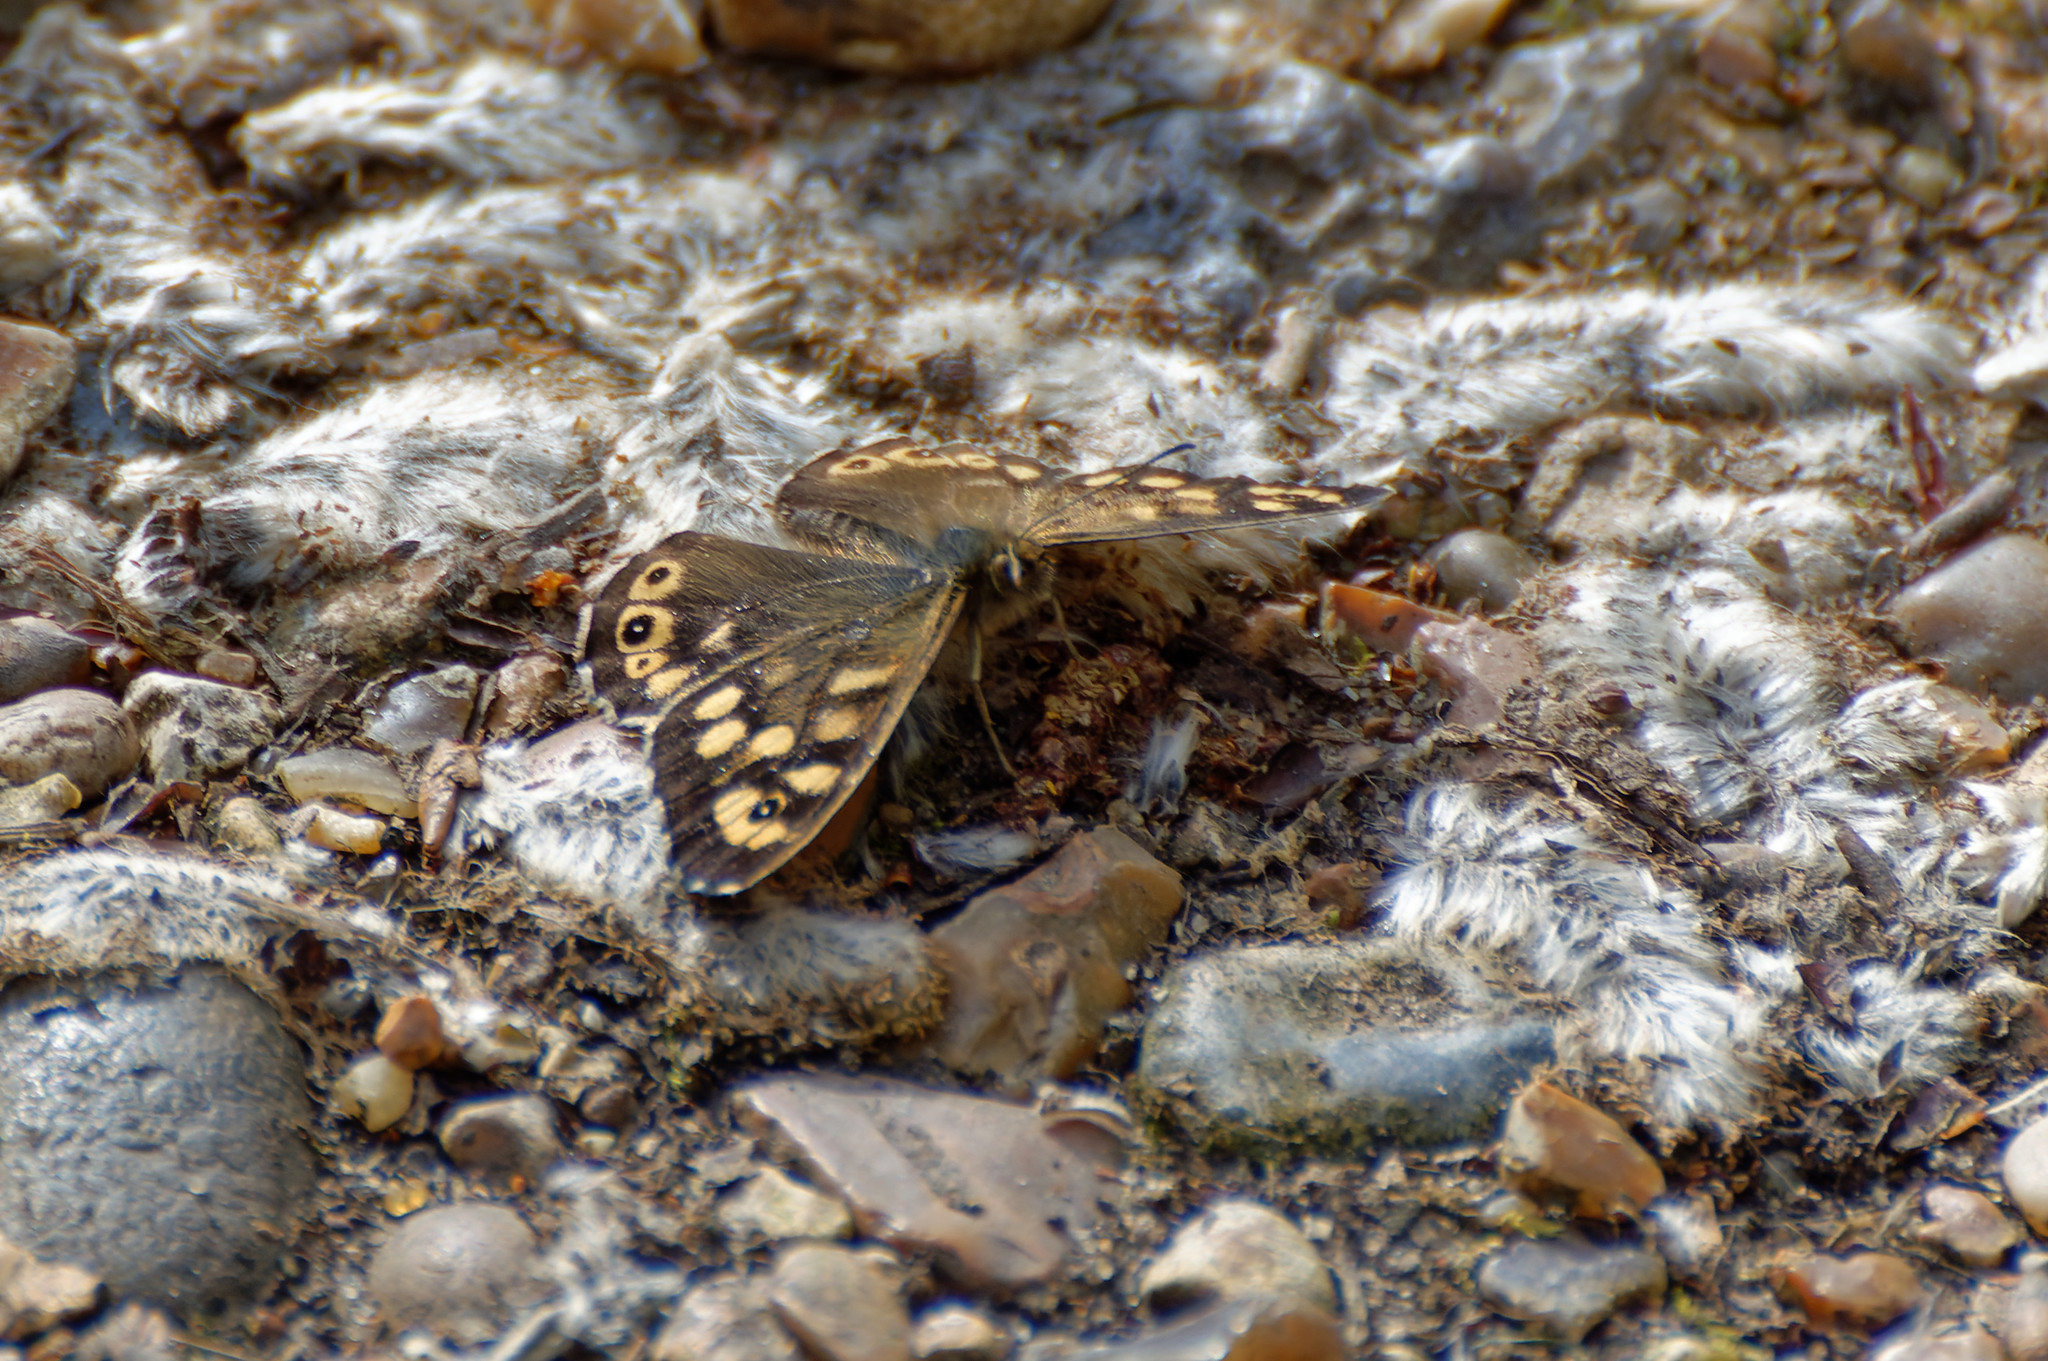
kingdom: Animalia
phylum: Arthropoda
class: Insecta
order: Lepidoptera
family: Nymphalidae
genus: Pararge
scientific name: Pararge aegeria
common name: Speckled wood
